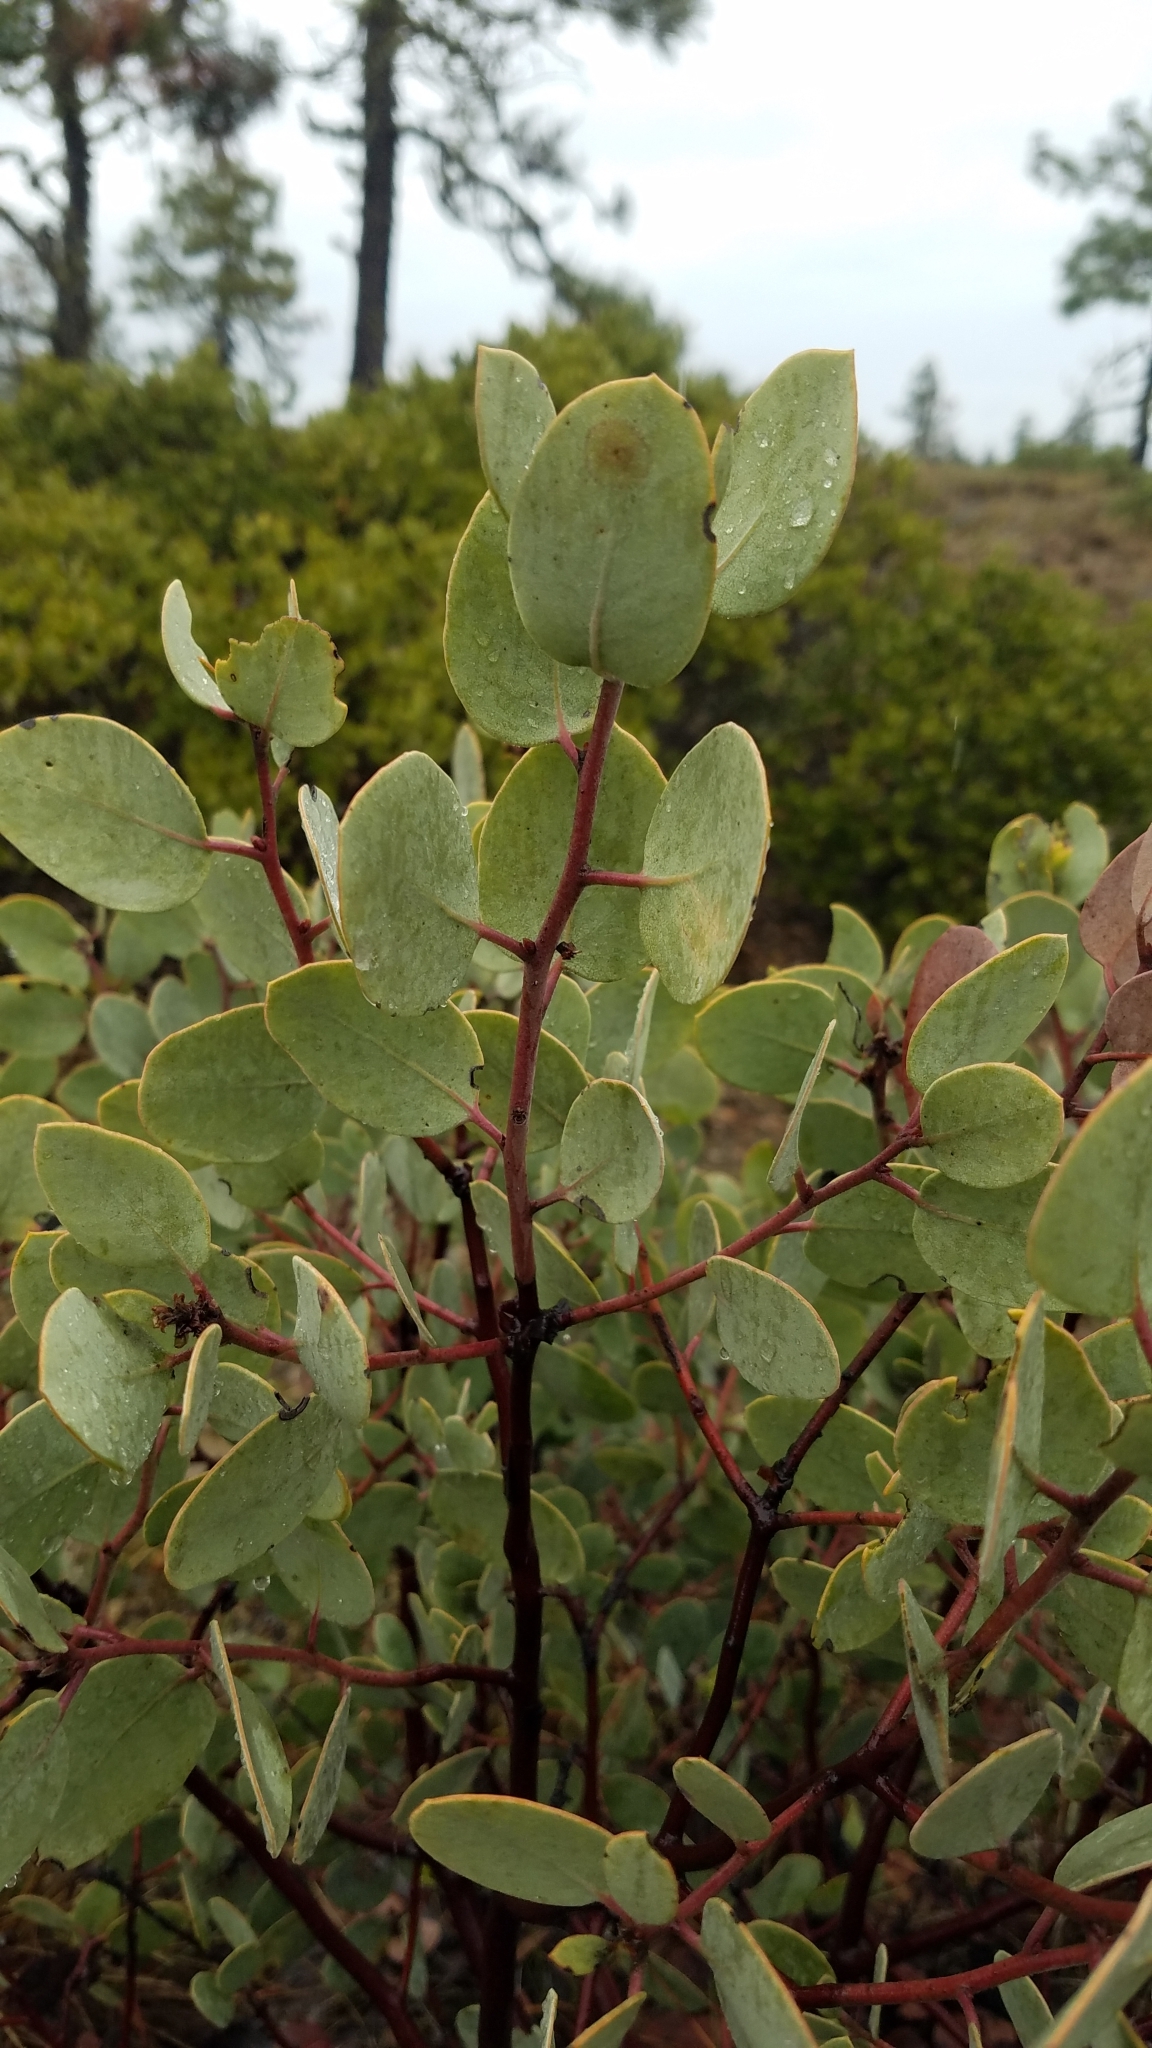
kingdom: Plantae
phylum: Tracheophyta
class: Magnoliopsida
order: Ericales
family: Ericaceae
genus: Arctostaphylos
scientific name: Arctostaphylos viscida
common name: White-leaf manzanita
